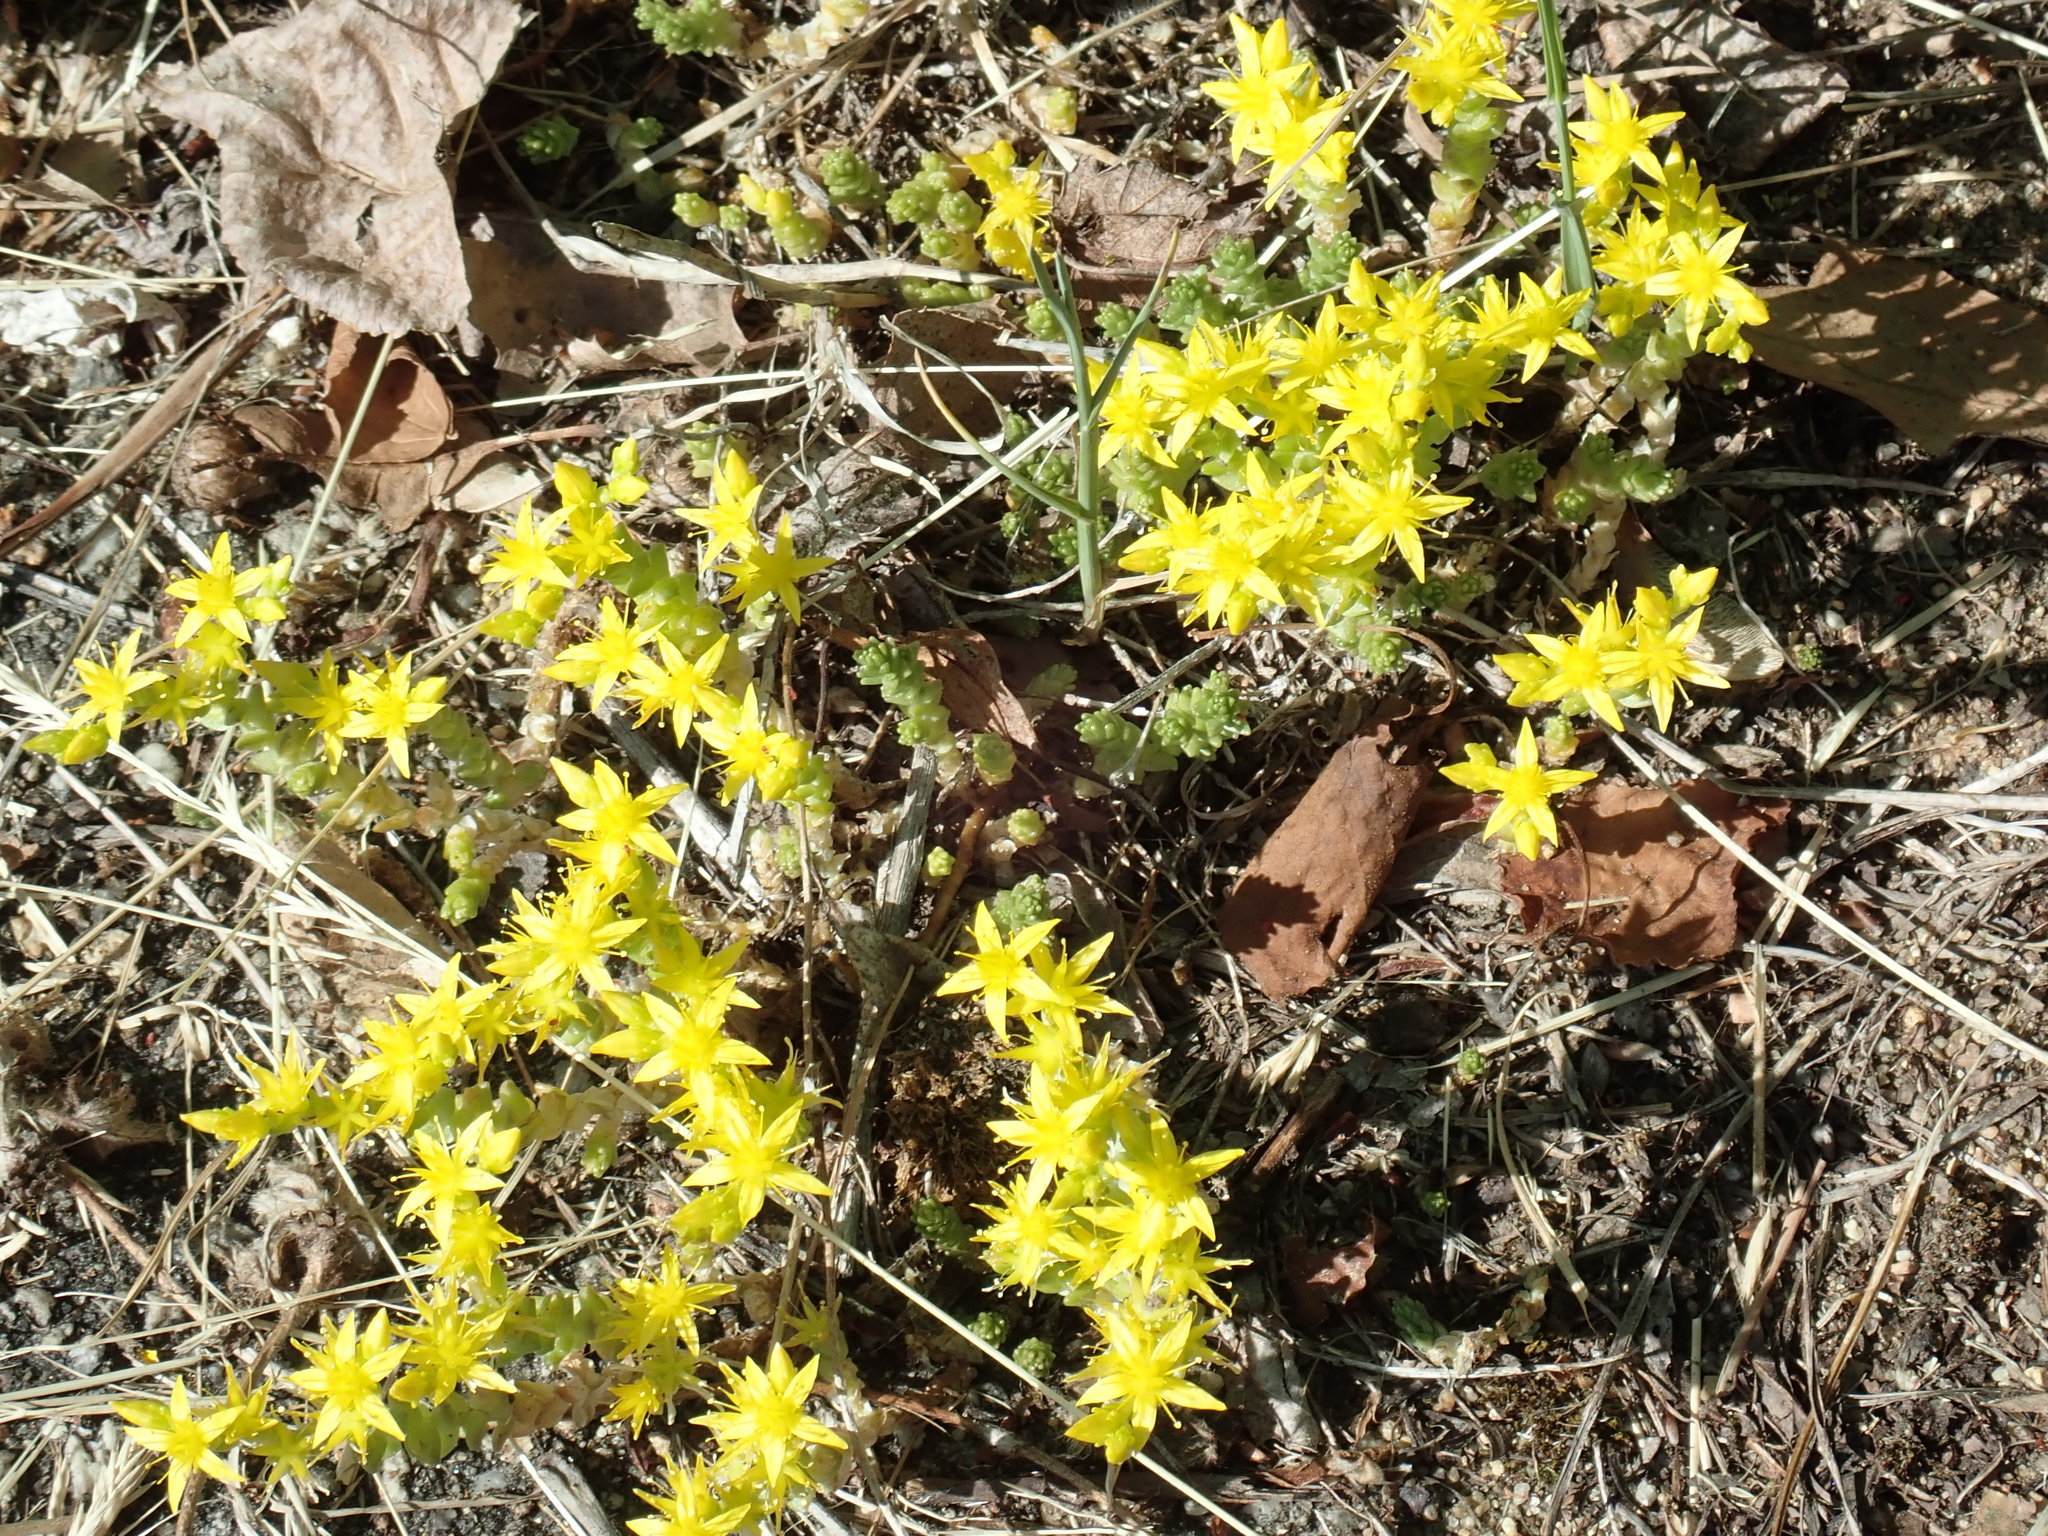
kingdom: Plantae
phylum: Tracheophyta
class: Magnoliopsida
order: Saxifragales
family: Crassulaceae
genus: Sedum
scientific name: Sedum acre
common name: Biting stonecrop
